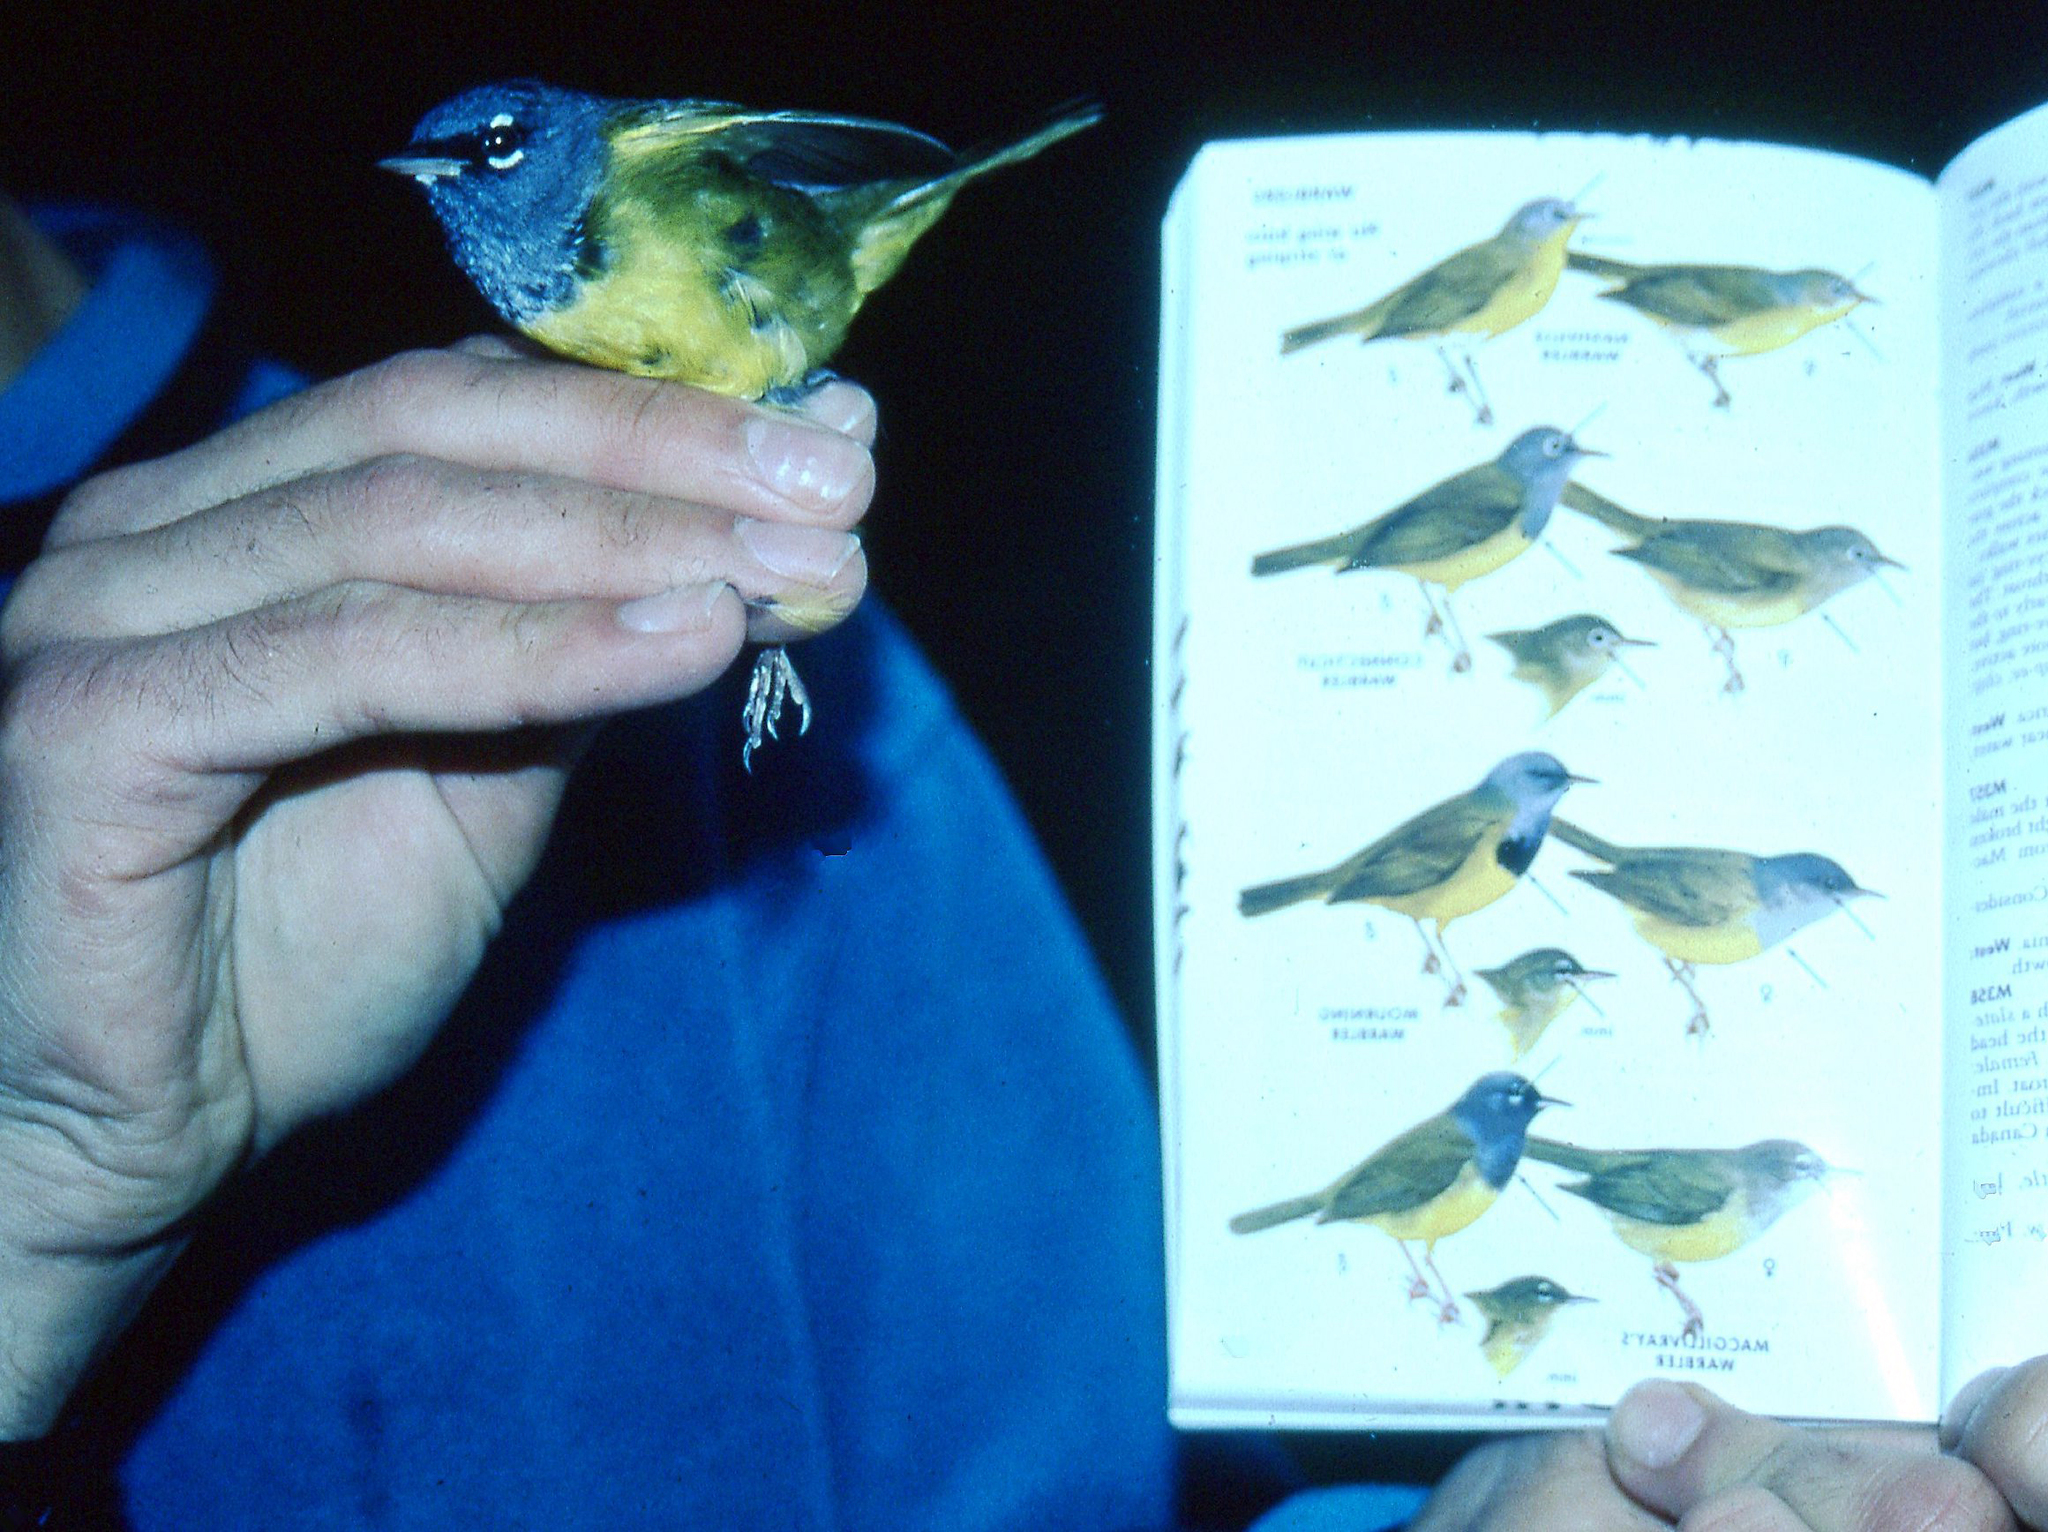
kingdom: Animalia
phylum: Chordata
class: Aves
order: Passeriformes
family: Parulidae
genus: Geothlypis
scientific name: Geothlypis tolmiei
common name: Macgillivray's warbler
